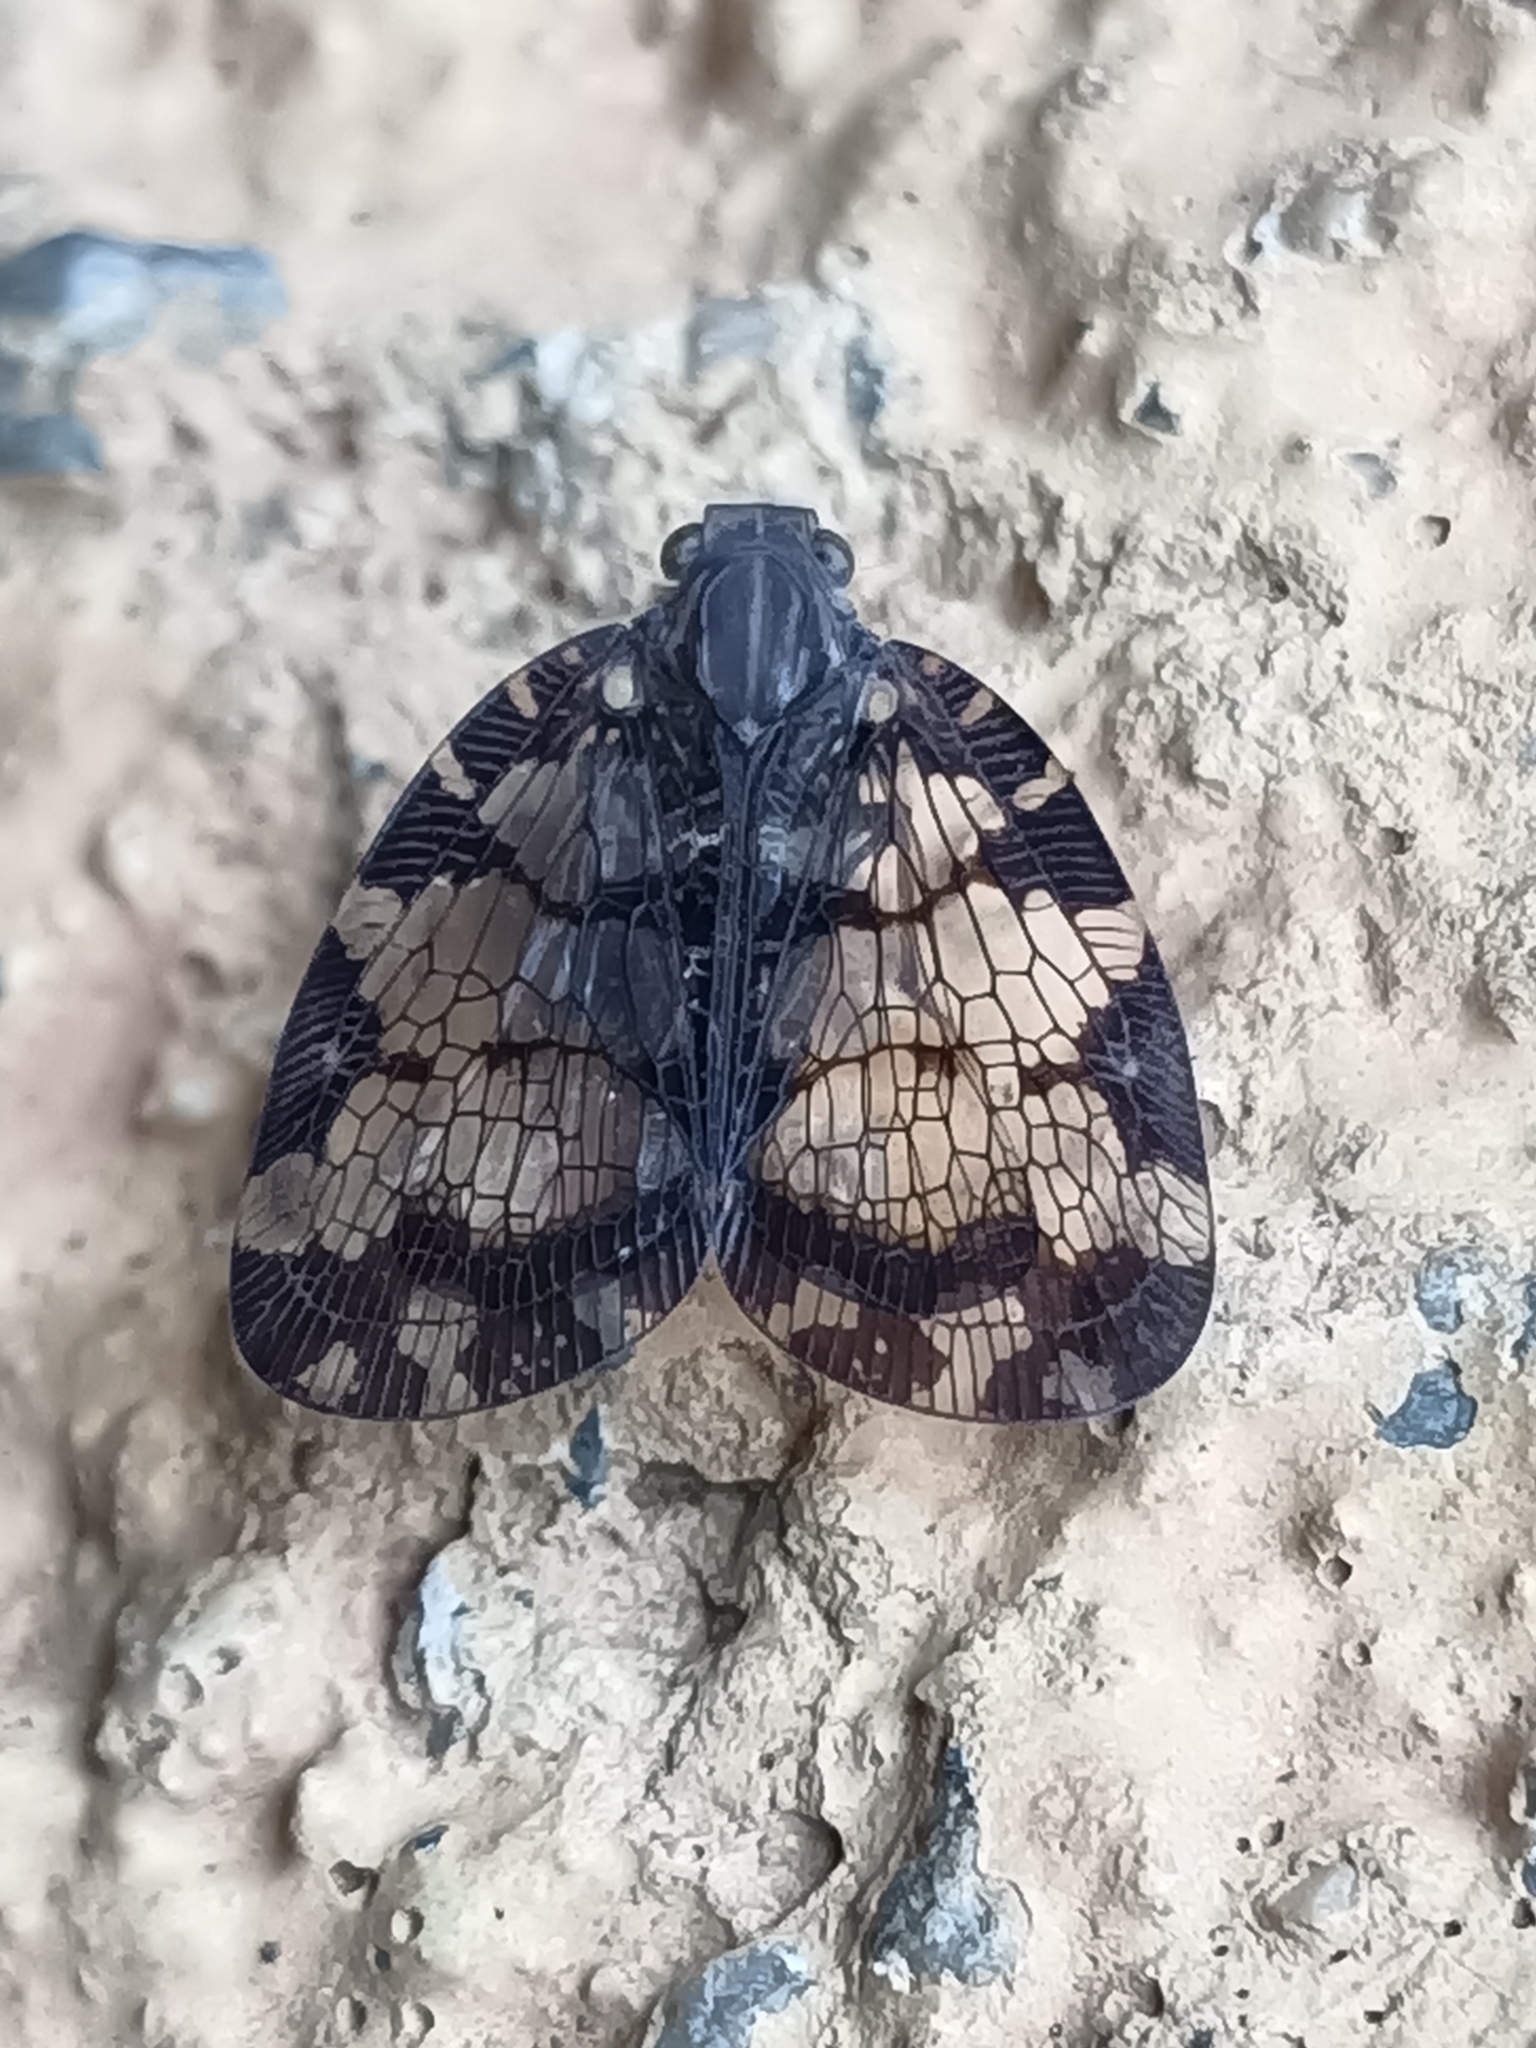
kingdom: Animalia
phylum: Arthropoda
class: Insecta
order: Hemiptera
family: Nogodinidae
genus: Nogodina
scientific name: Nogodina reticulata
